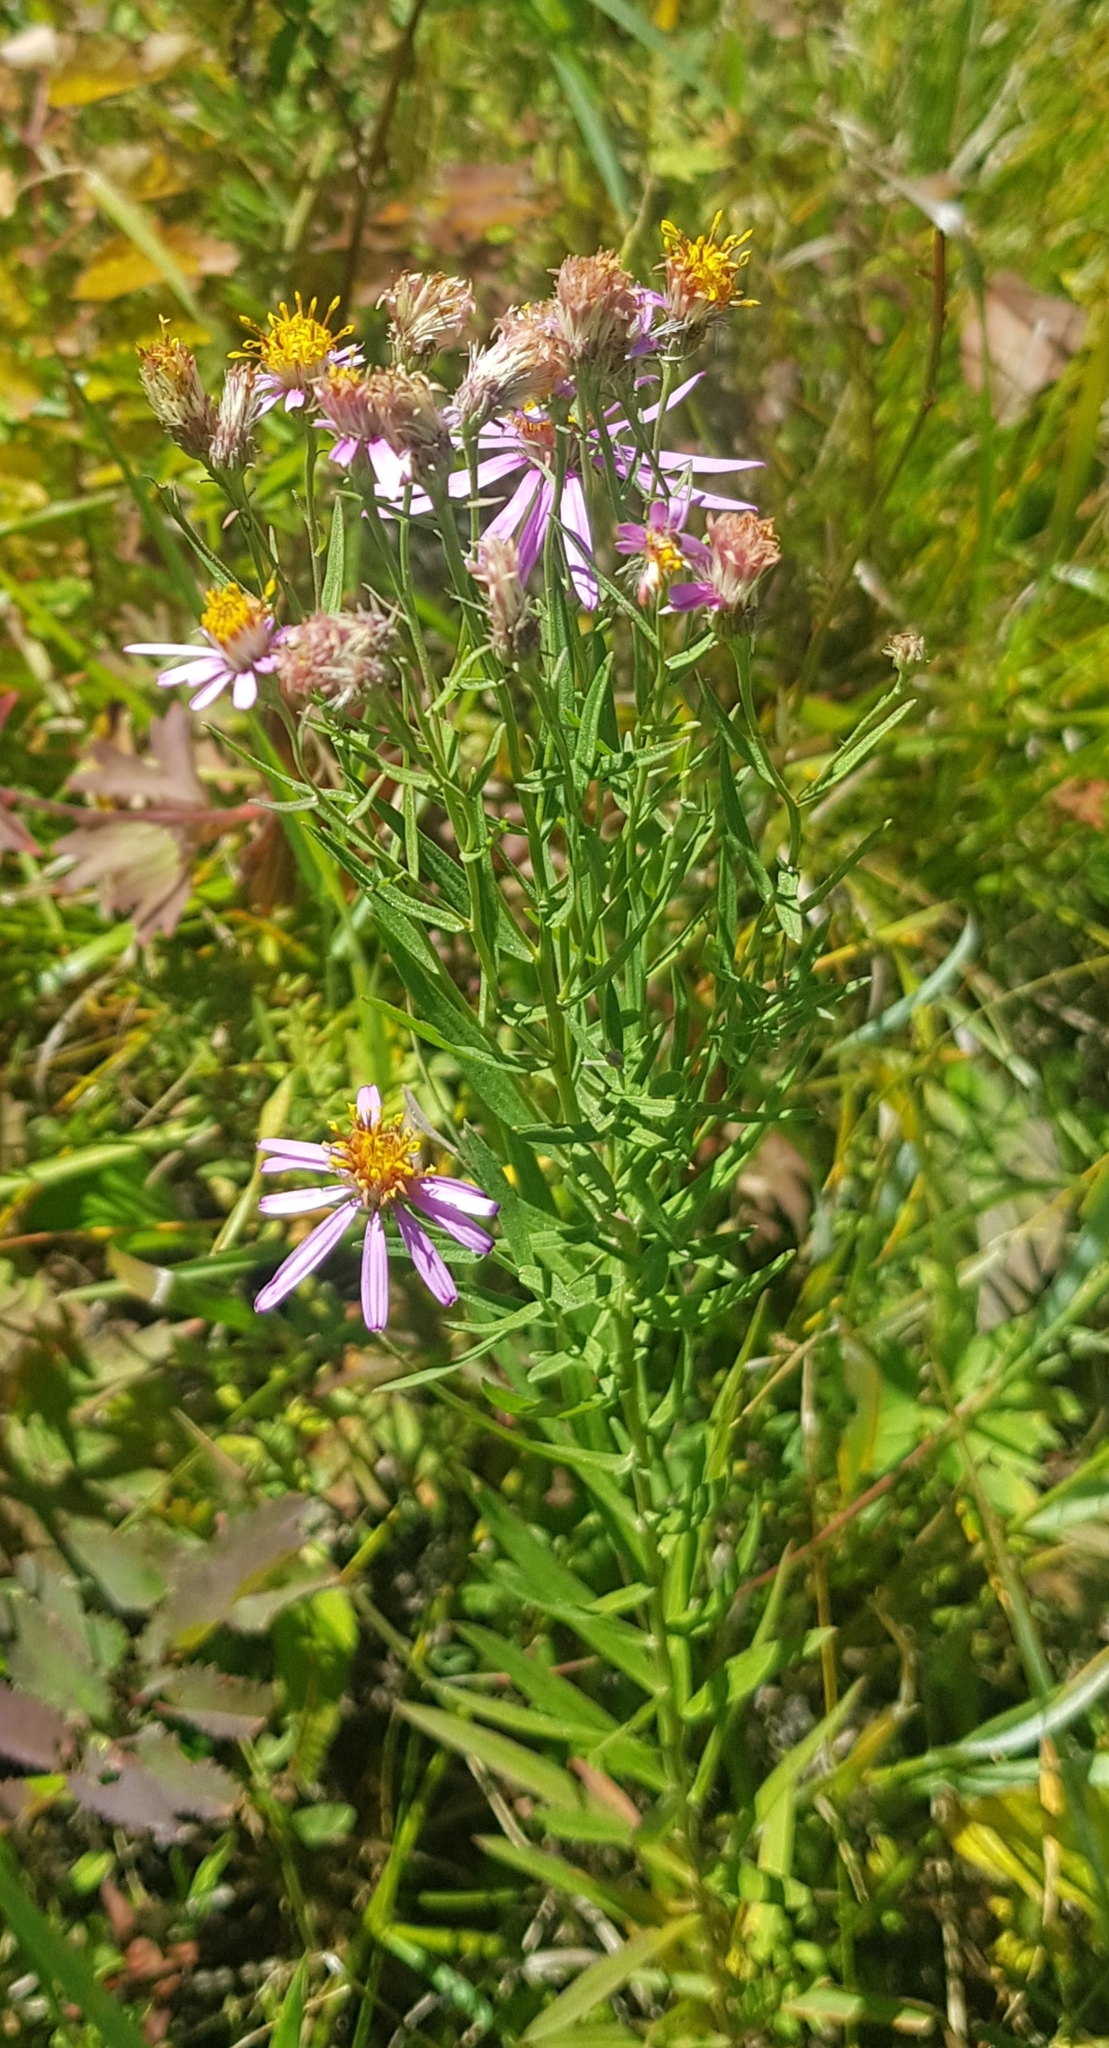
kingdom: Plantae
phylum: Tracheophyta
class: Magnoliopsida
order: Asterales
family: Asteraceae
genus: Galatella
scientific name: Galatella dahurica
